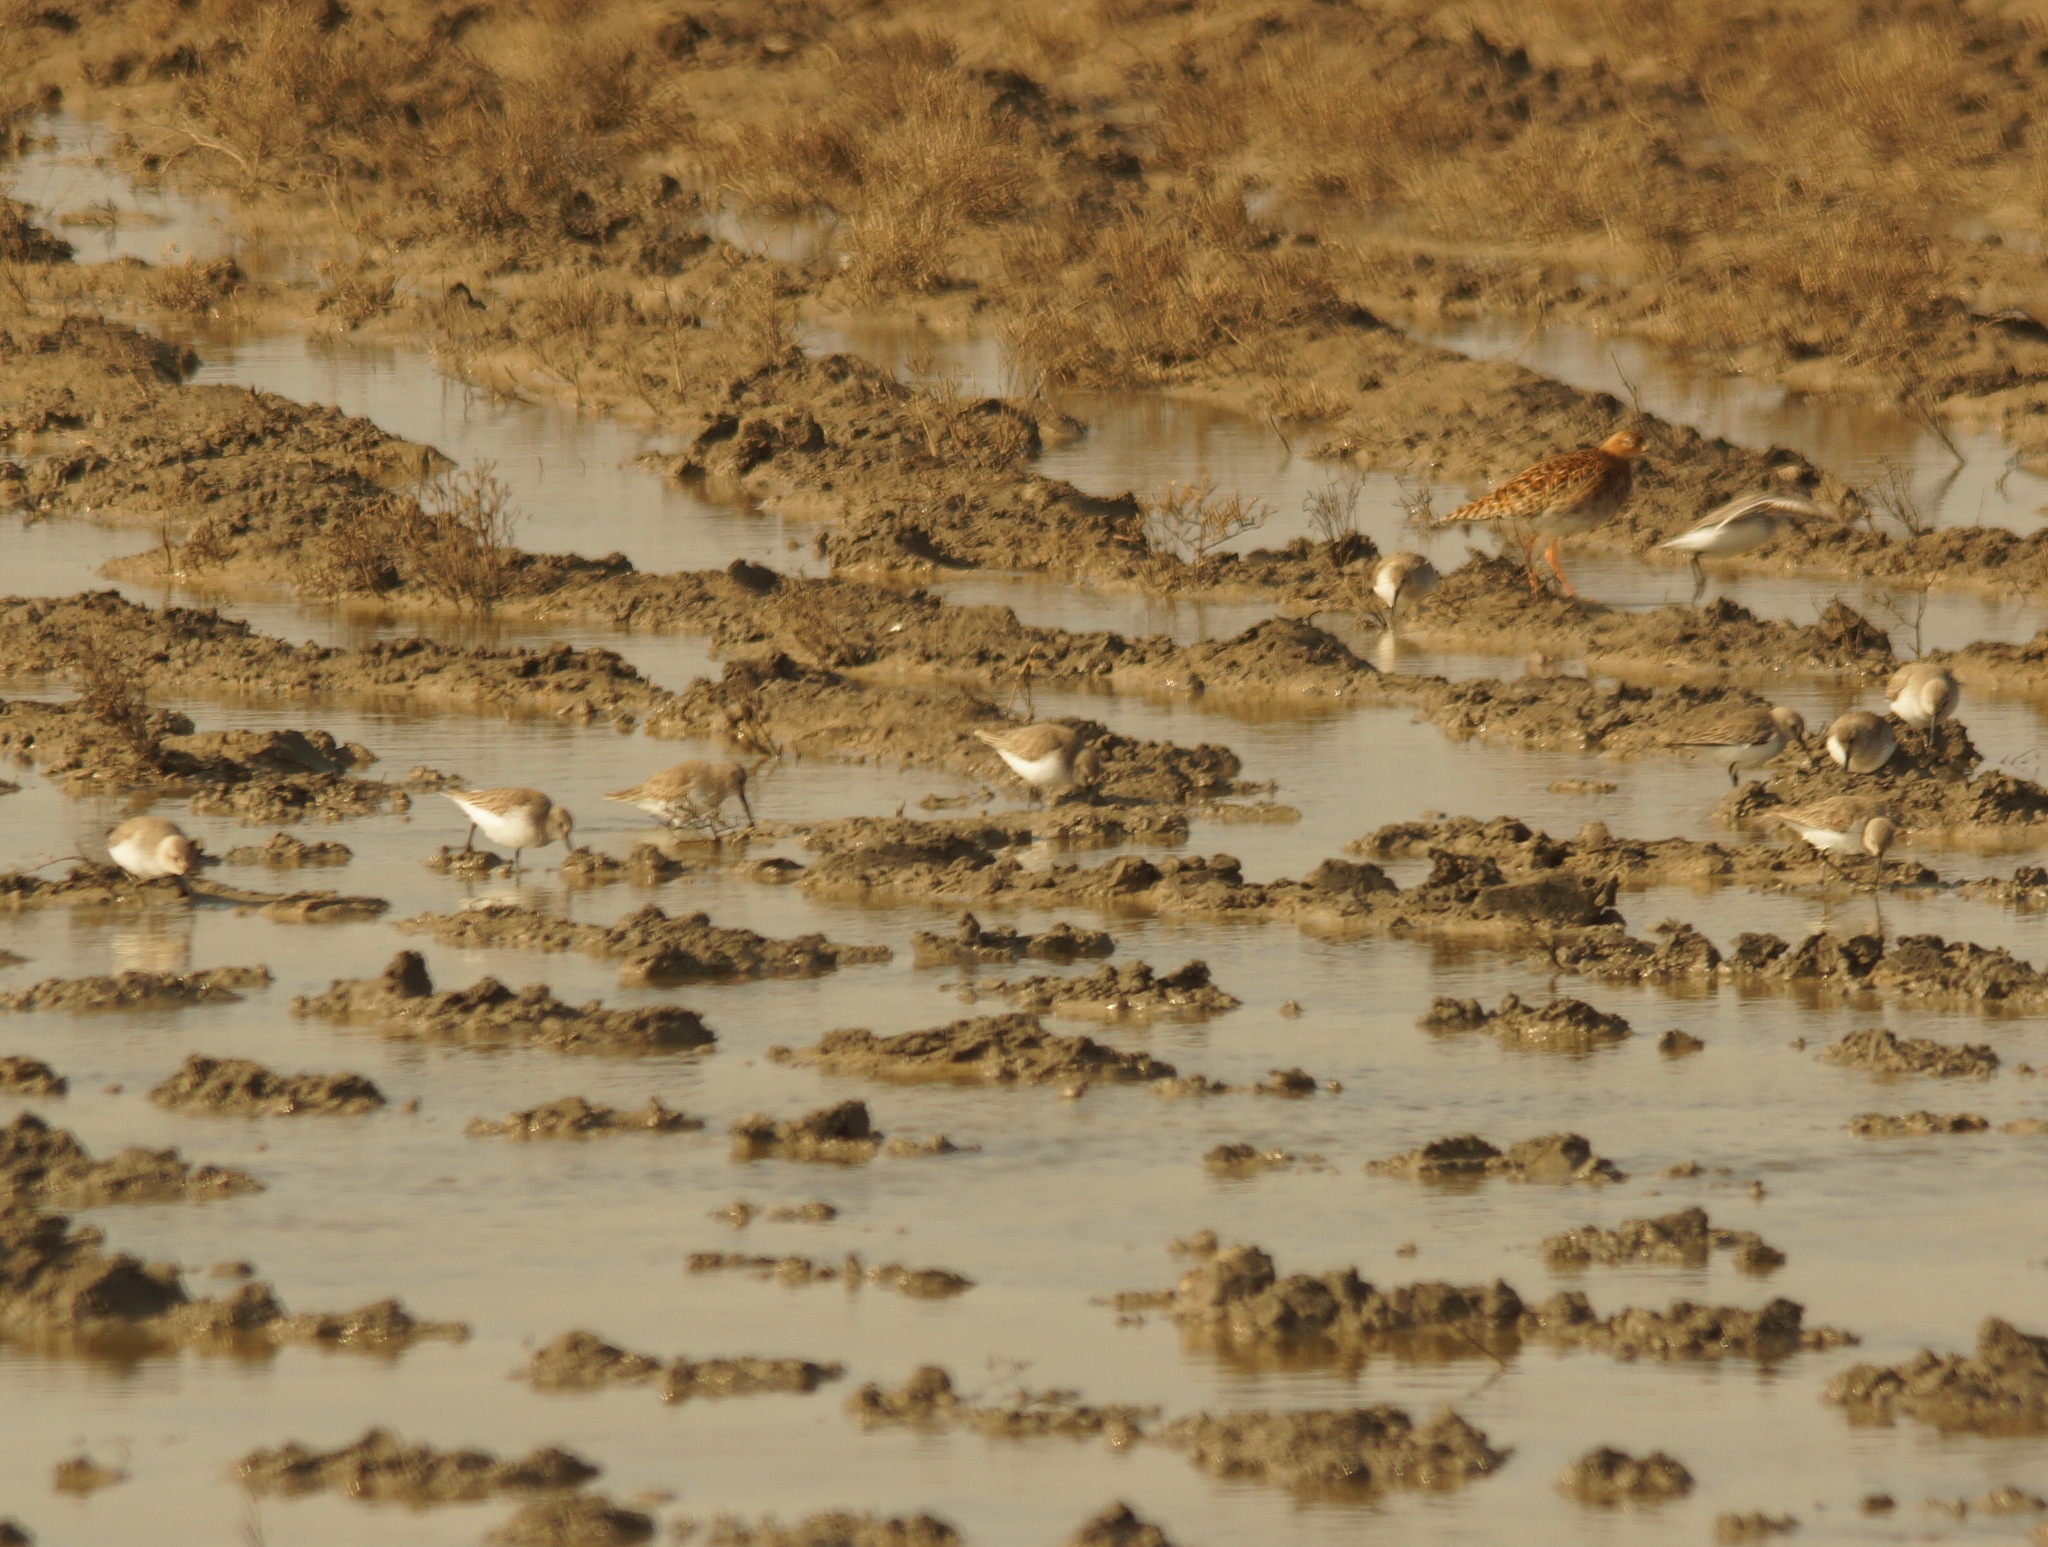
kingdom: Animalia
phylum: Chordata
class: Aves
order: Charadriiformes
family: Scolopacidae
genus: Calidris
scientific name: Calidris alpina
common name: Dunlin
